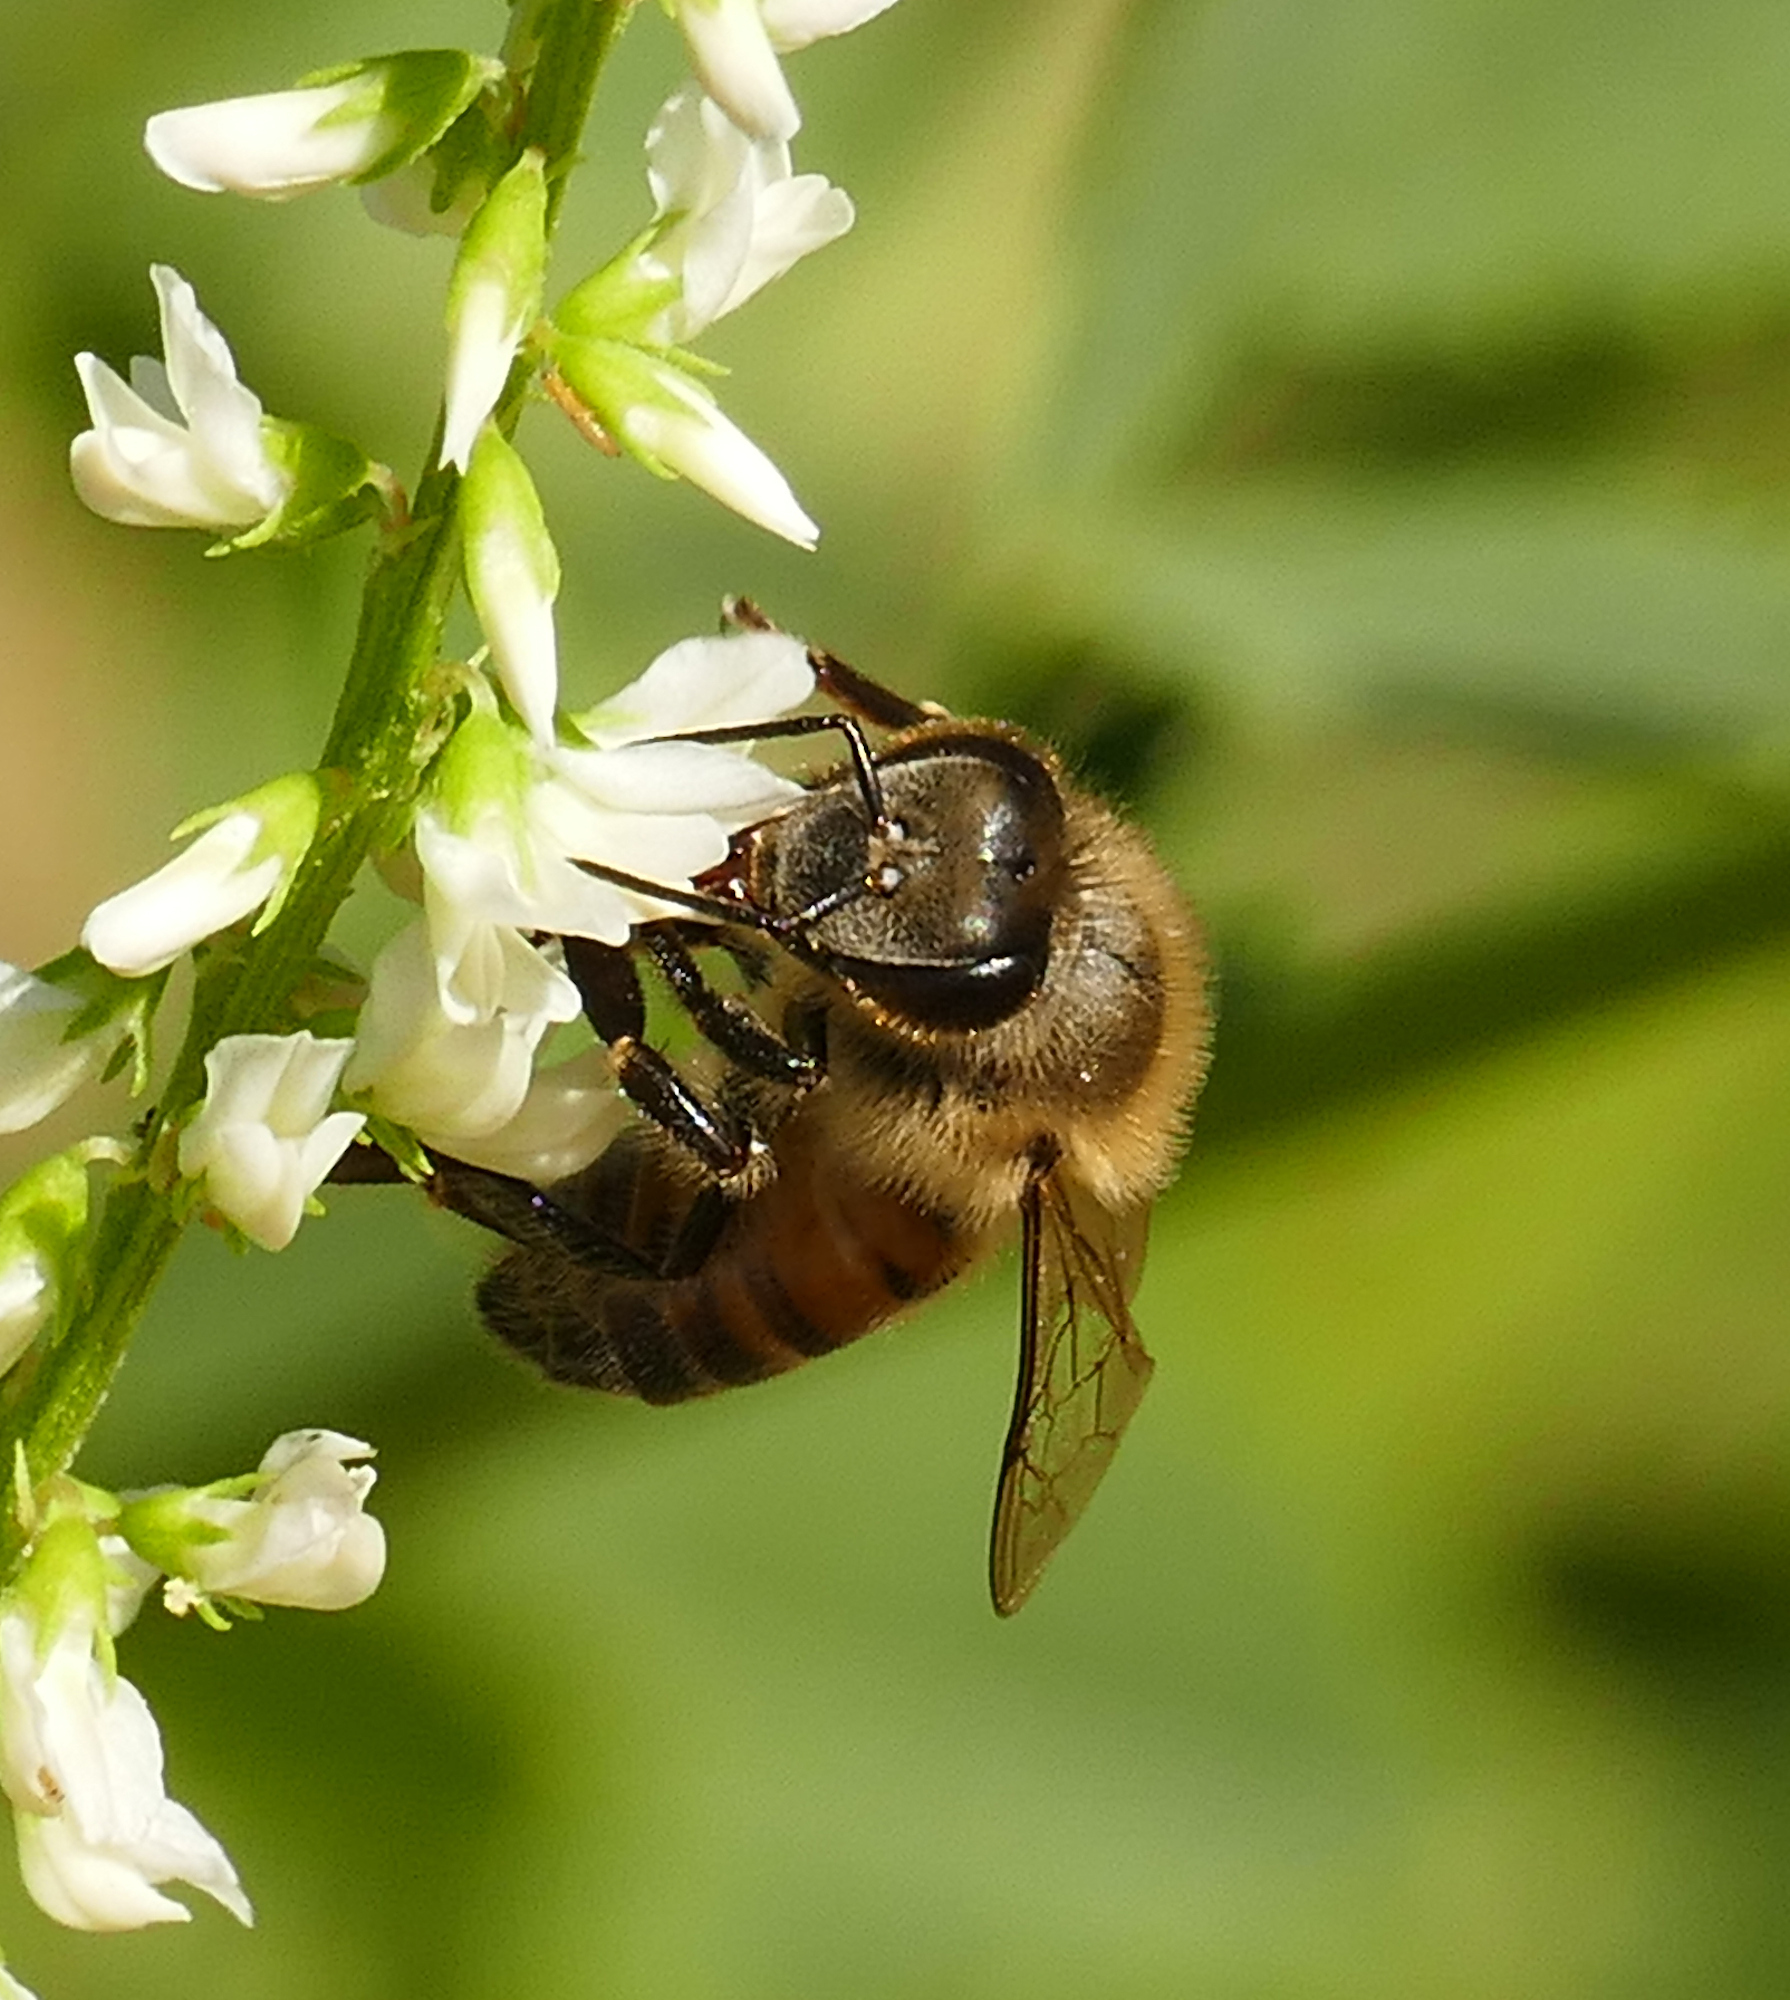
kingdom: Animalia
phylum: Arthropoda
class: Insecta
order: Hymenoptera
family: Apidae
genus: Apis
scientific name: Apis mellifera
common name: Honey bee
